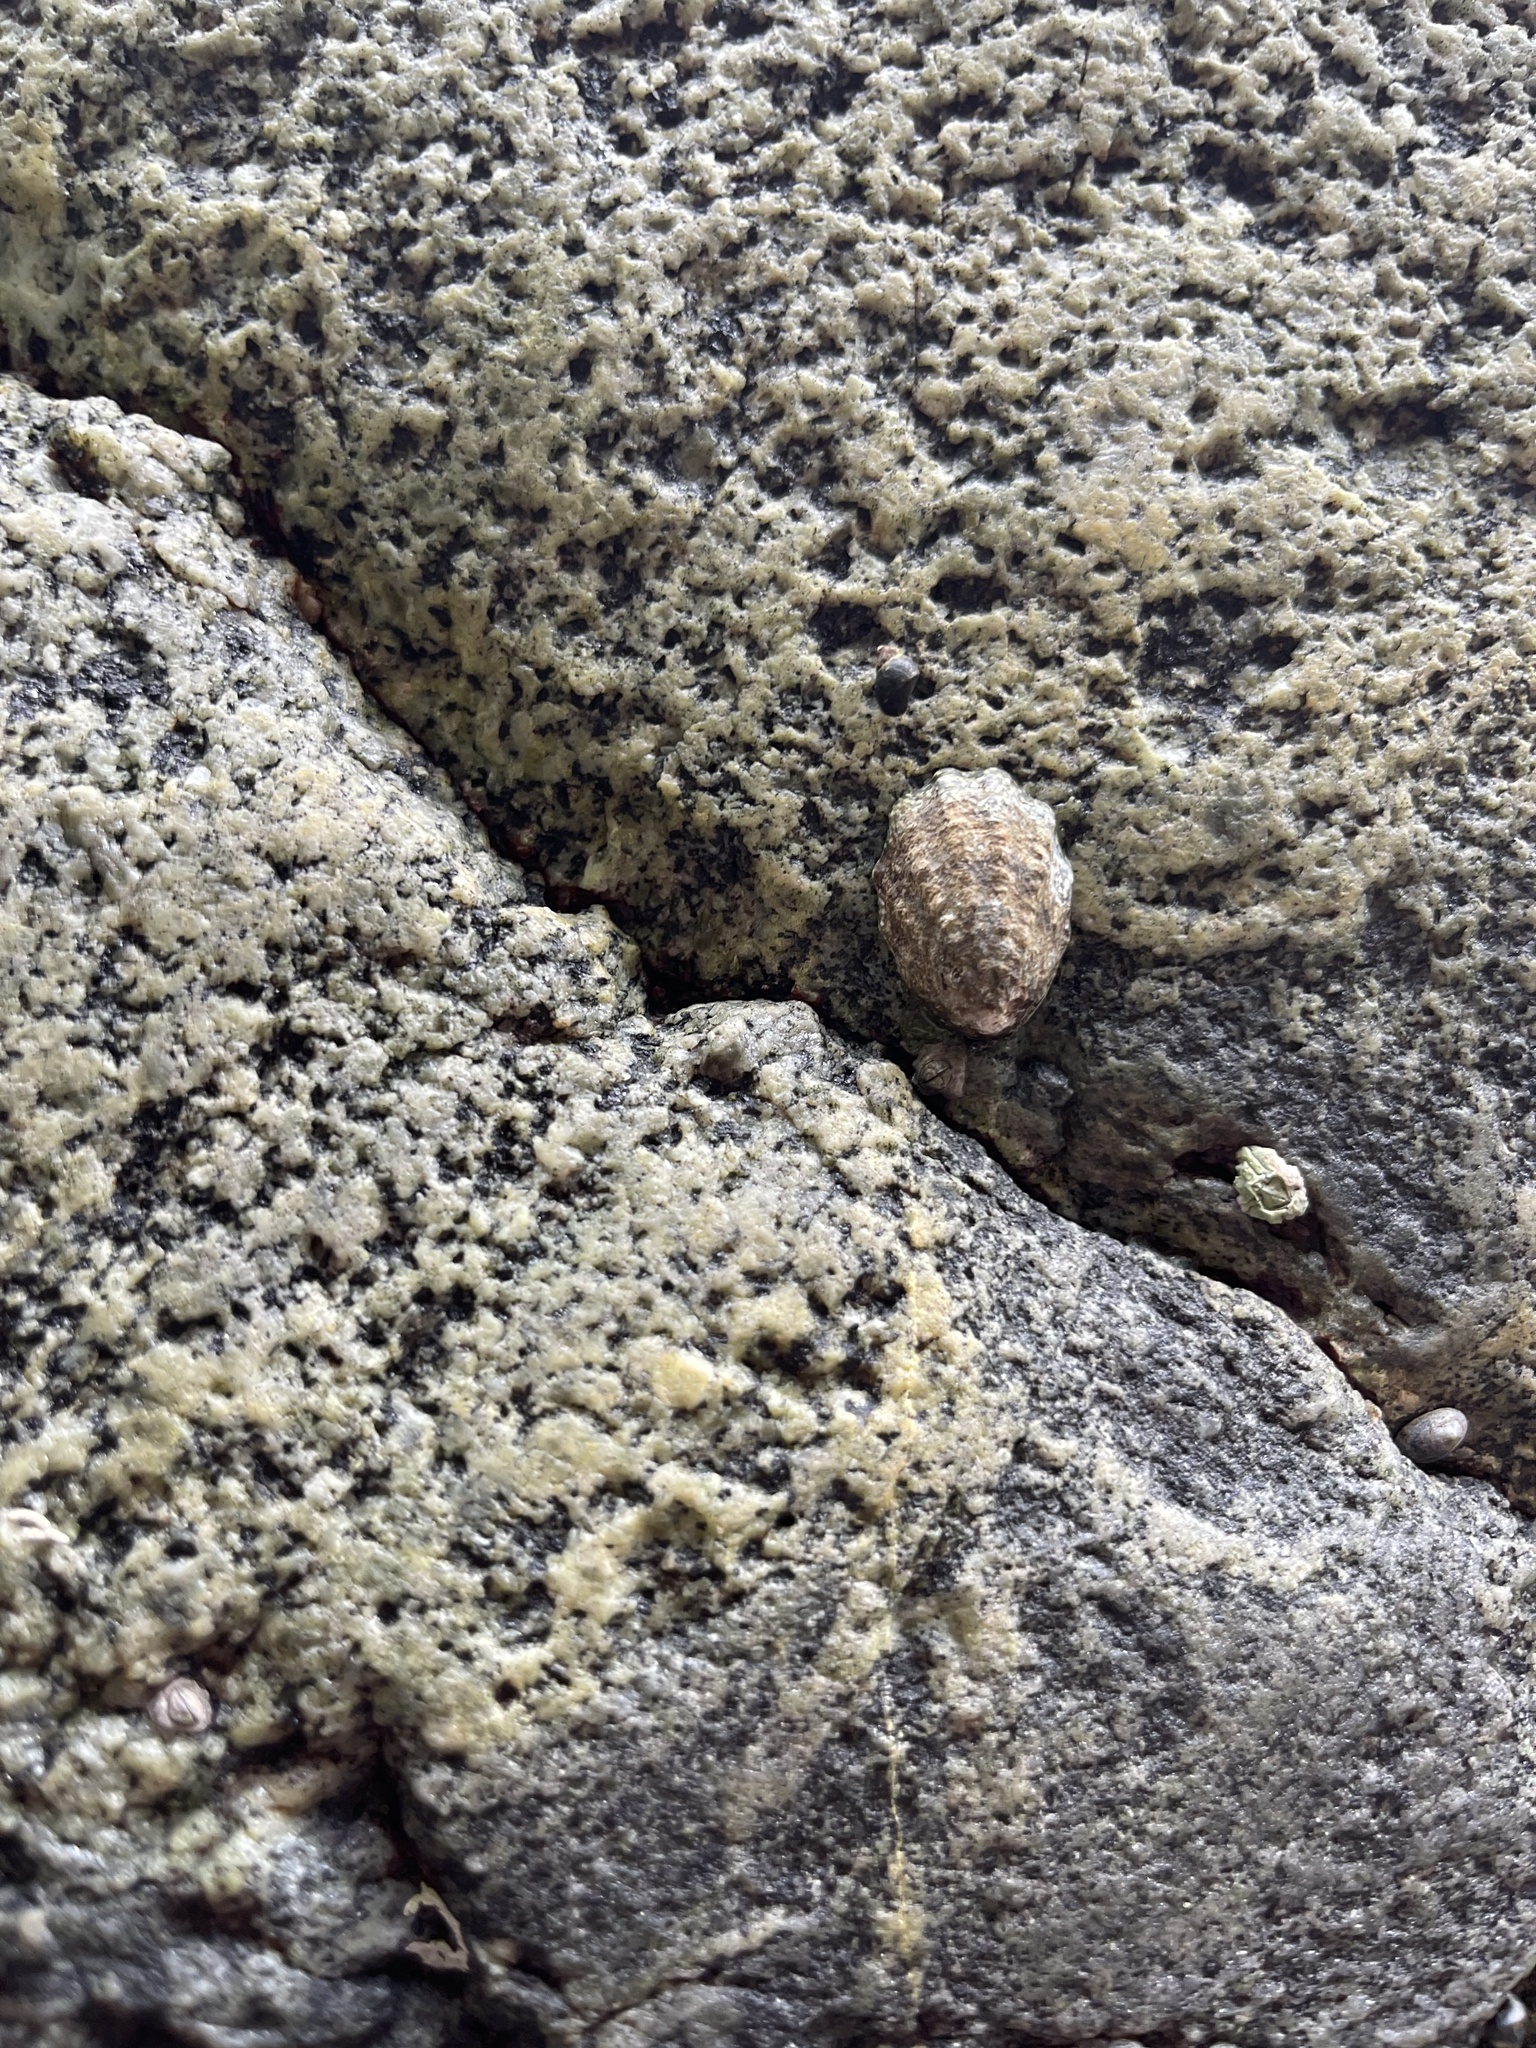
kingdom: Animalia
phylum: Mollusca
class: Gastropoda
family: Lottiidae
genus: Lottia
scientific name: Lottia digitalis
